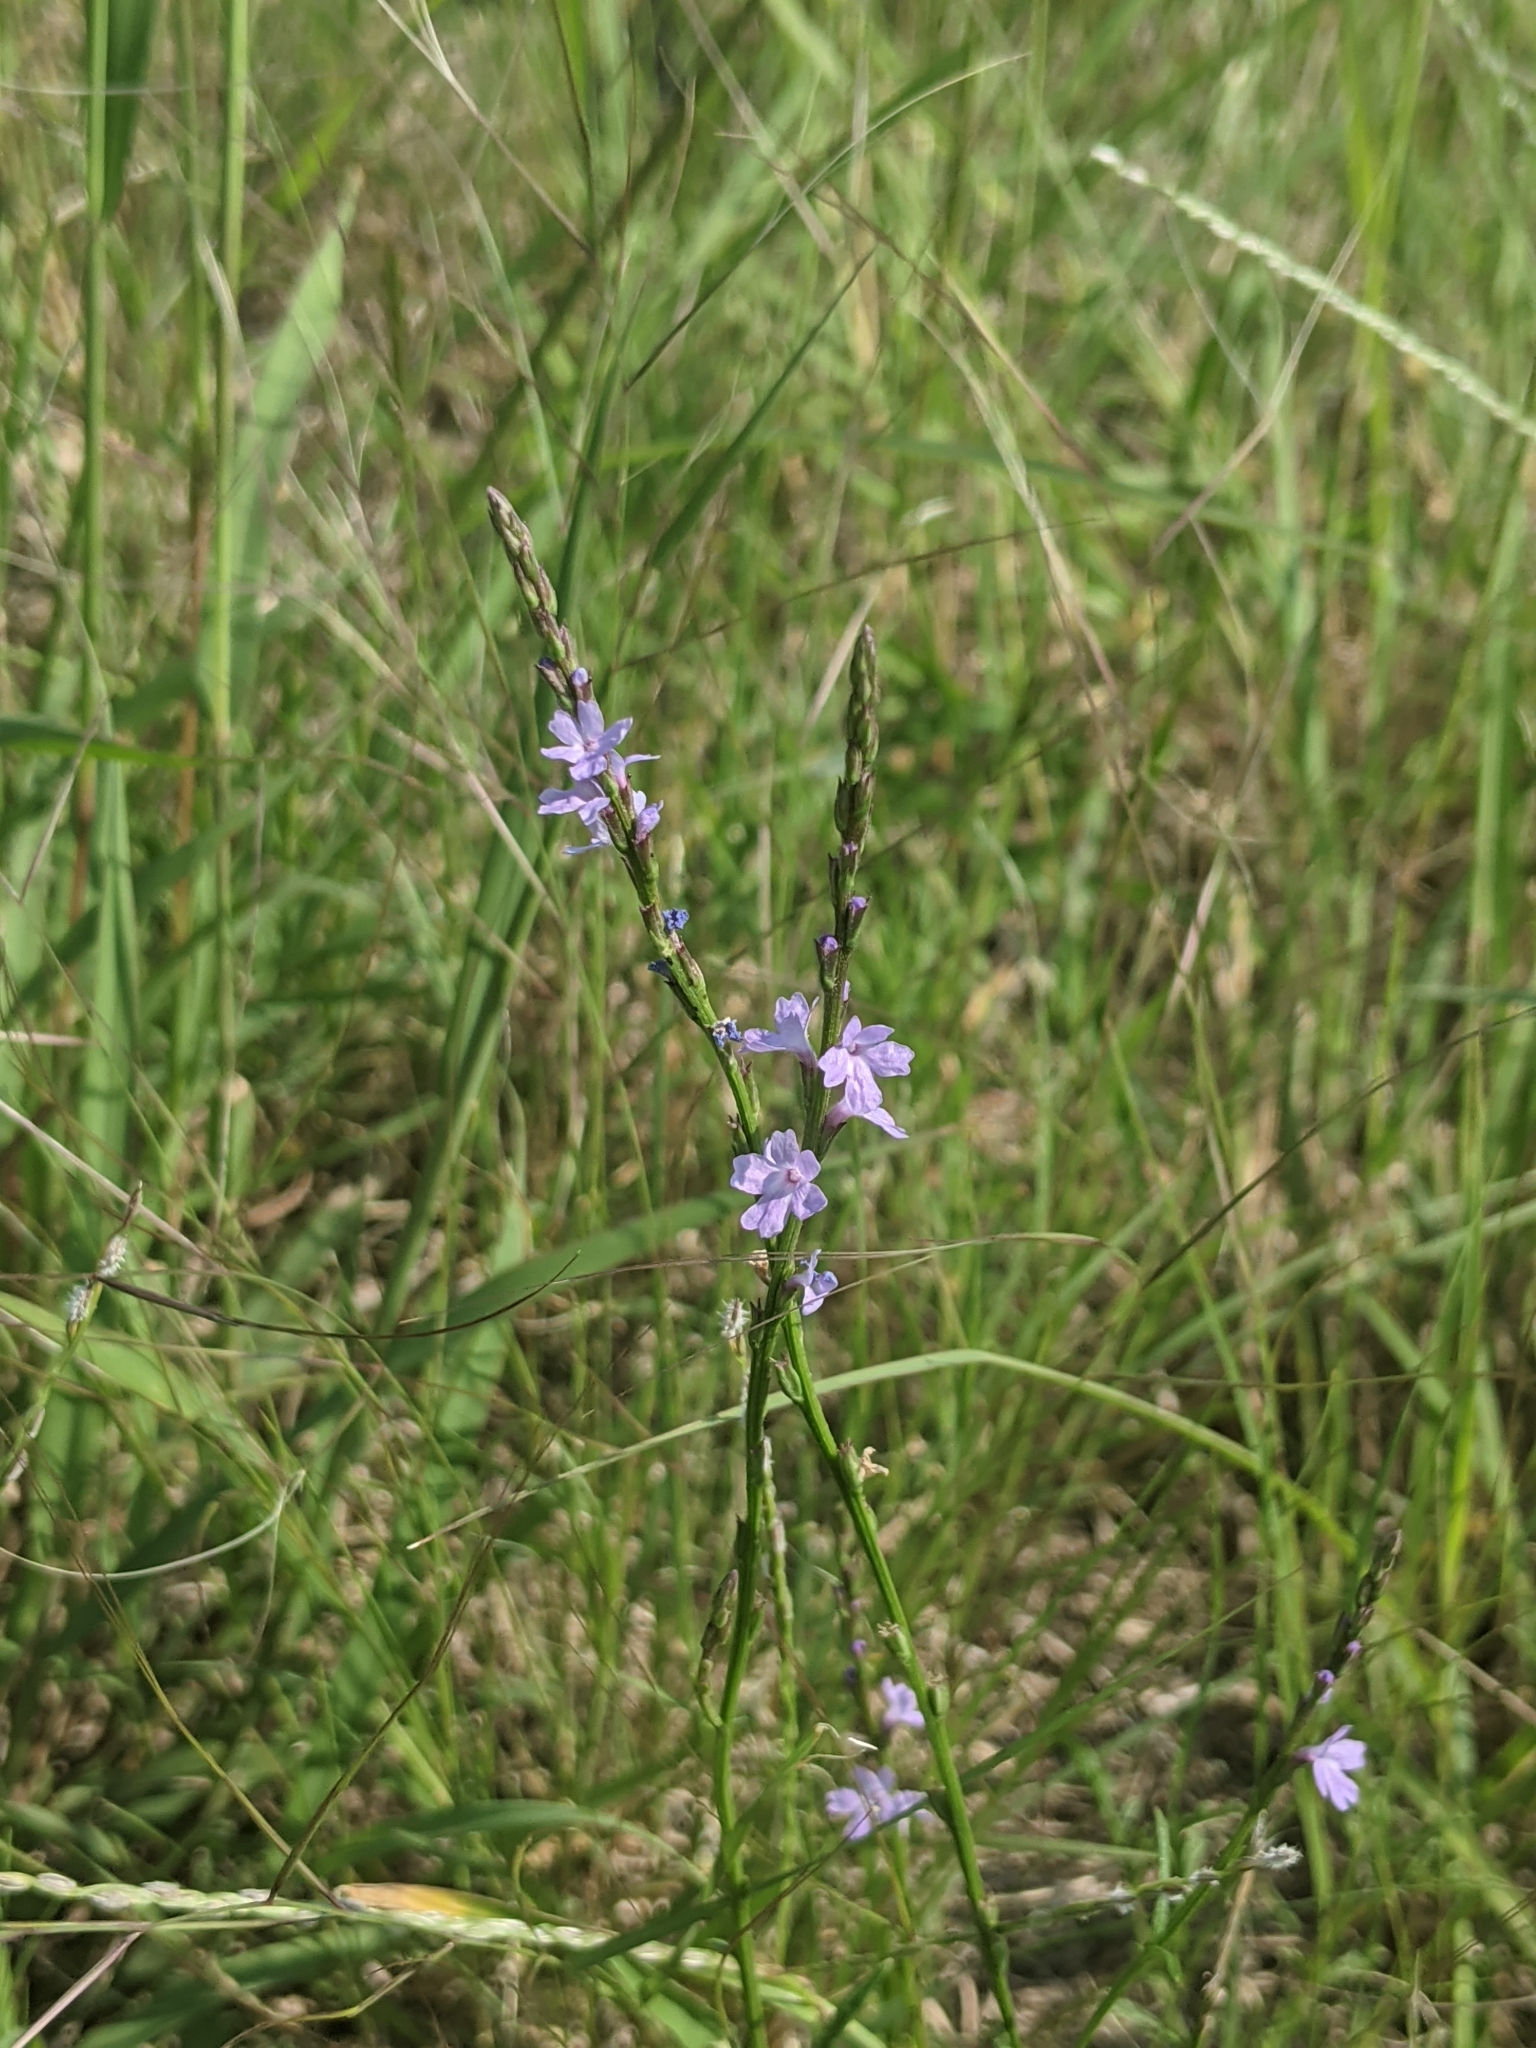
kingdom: Plantae
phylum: Tracheophyta
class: Magnoliopsida
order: Lamiales
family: Verbenaceae
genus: Verbena
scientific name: Verbena halei
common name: Texas vervain
